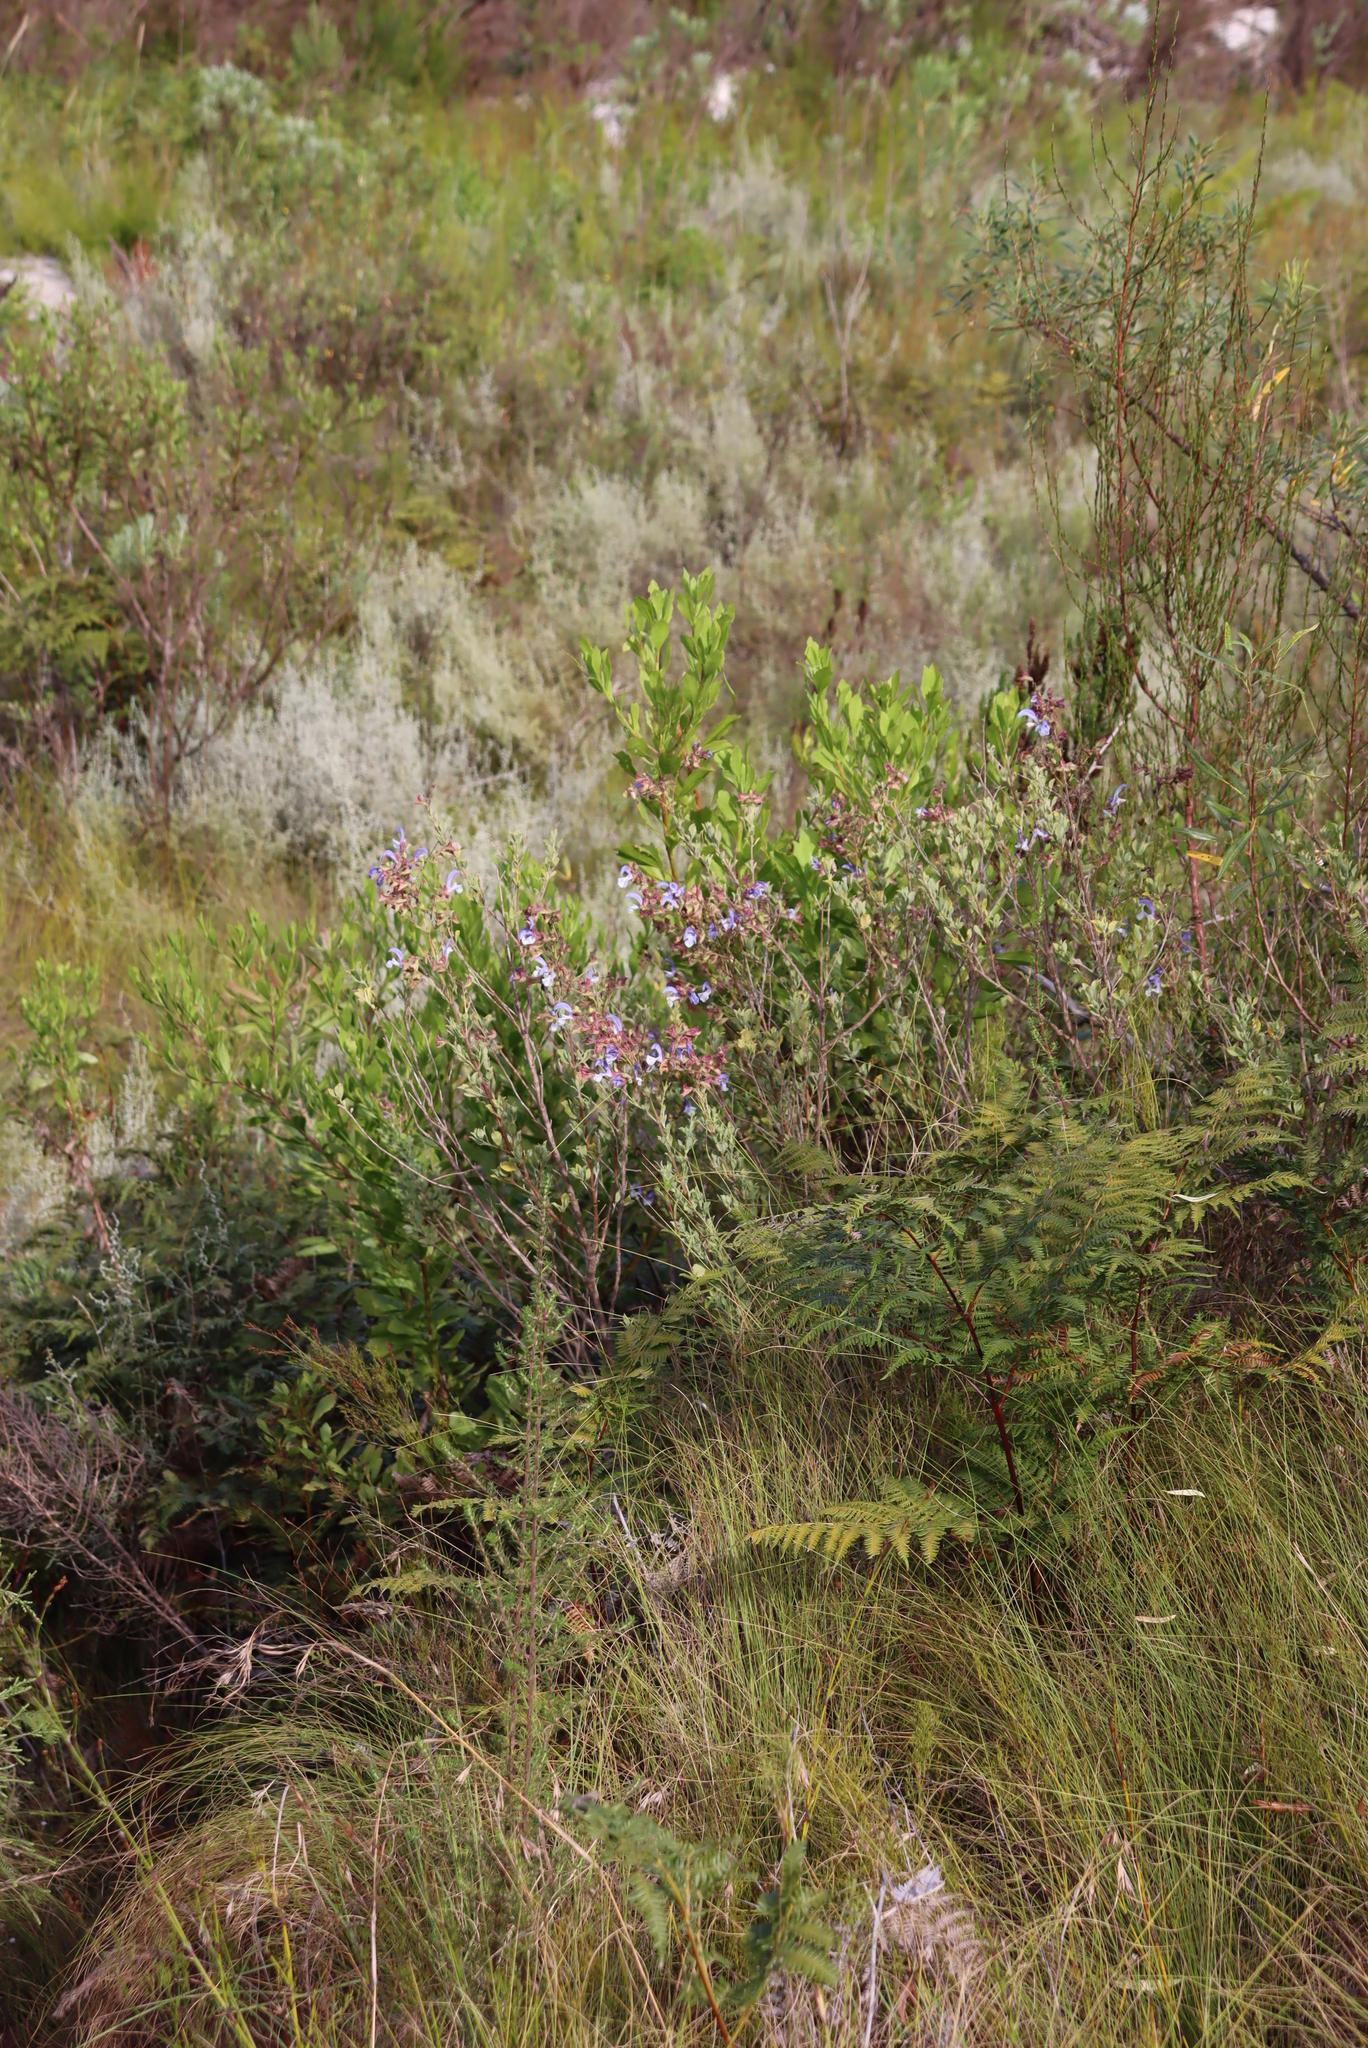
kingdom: Plantae
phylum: Tracheophyta
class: Magnoliopsida
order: Lamiales
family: Lamiaceae
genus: Salvia
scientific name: Salvia chamelaeagnea
